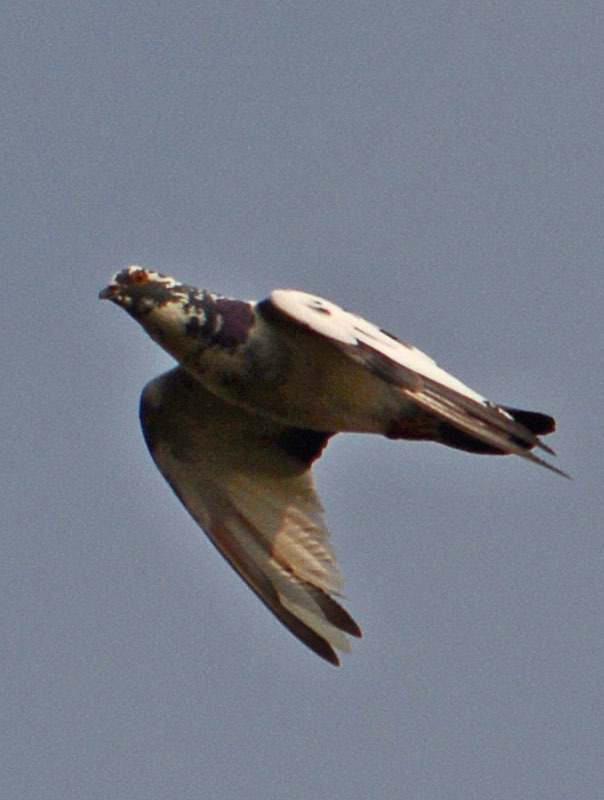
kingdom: Animalia
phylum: Chordata
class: Aves
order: Columbiformes
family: Columbidae
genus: Columba
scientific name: Columba livia
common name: Rock pigeon
